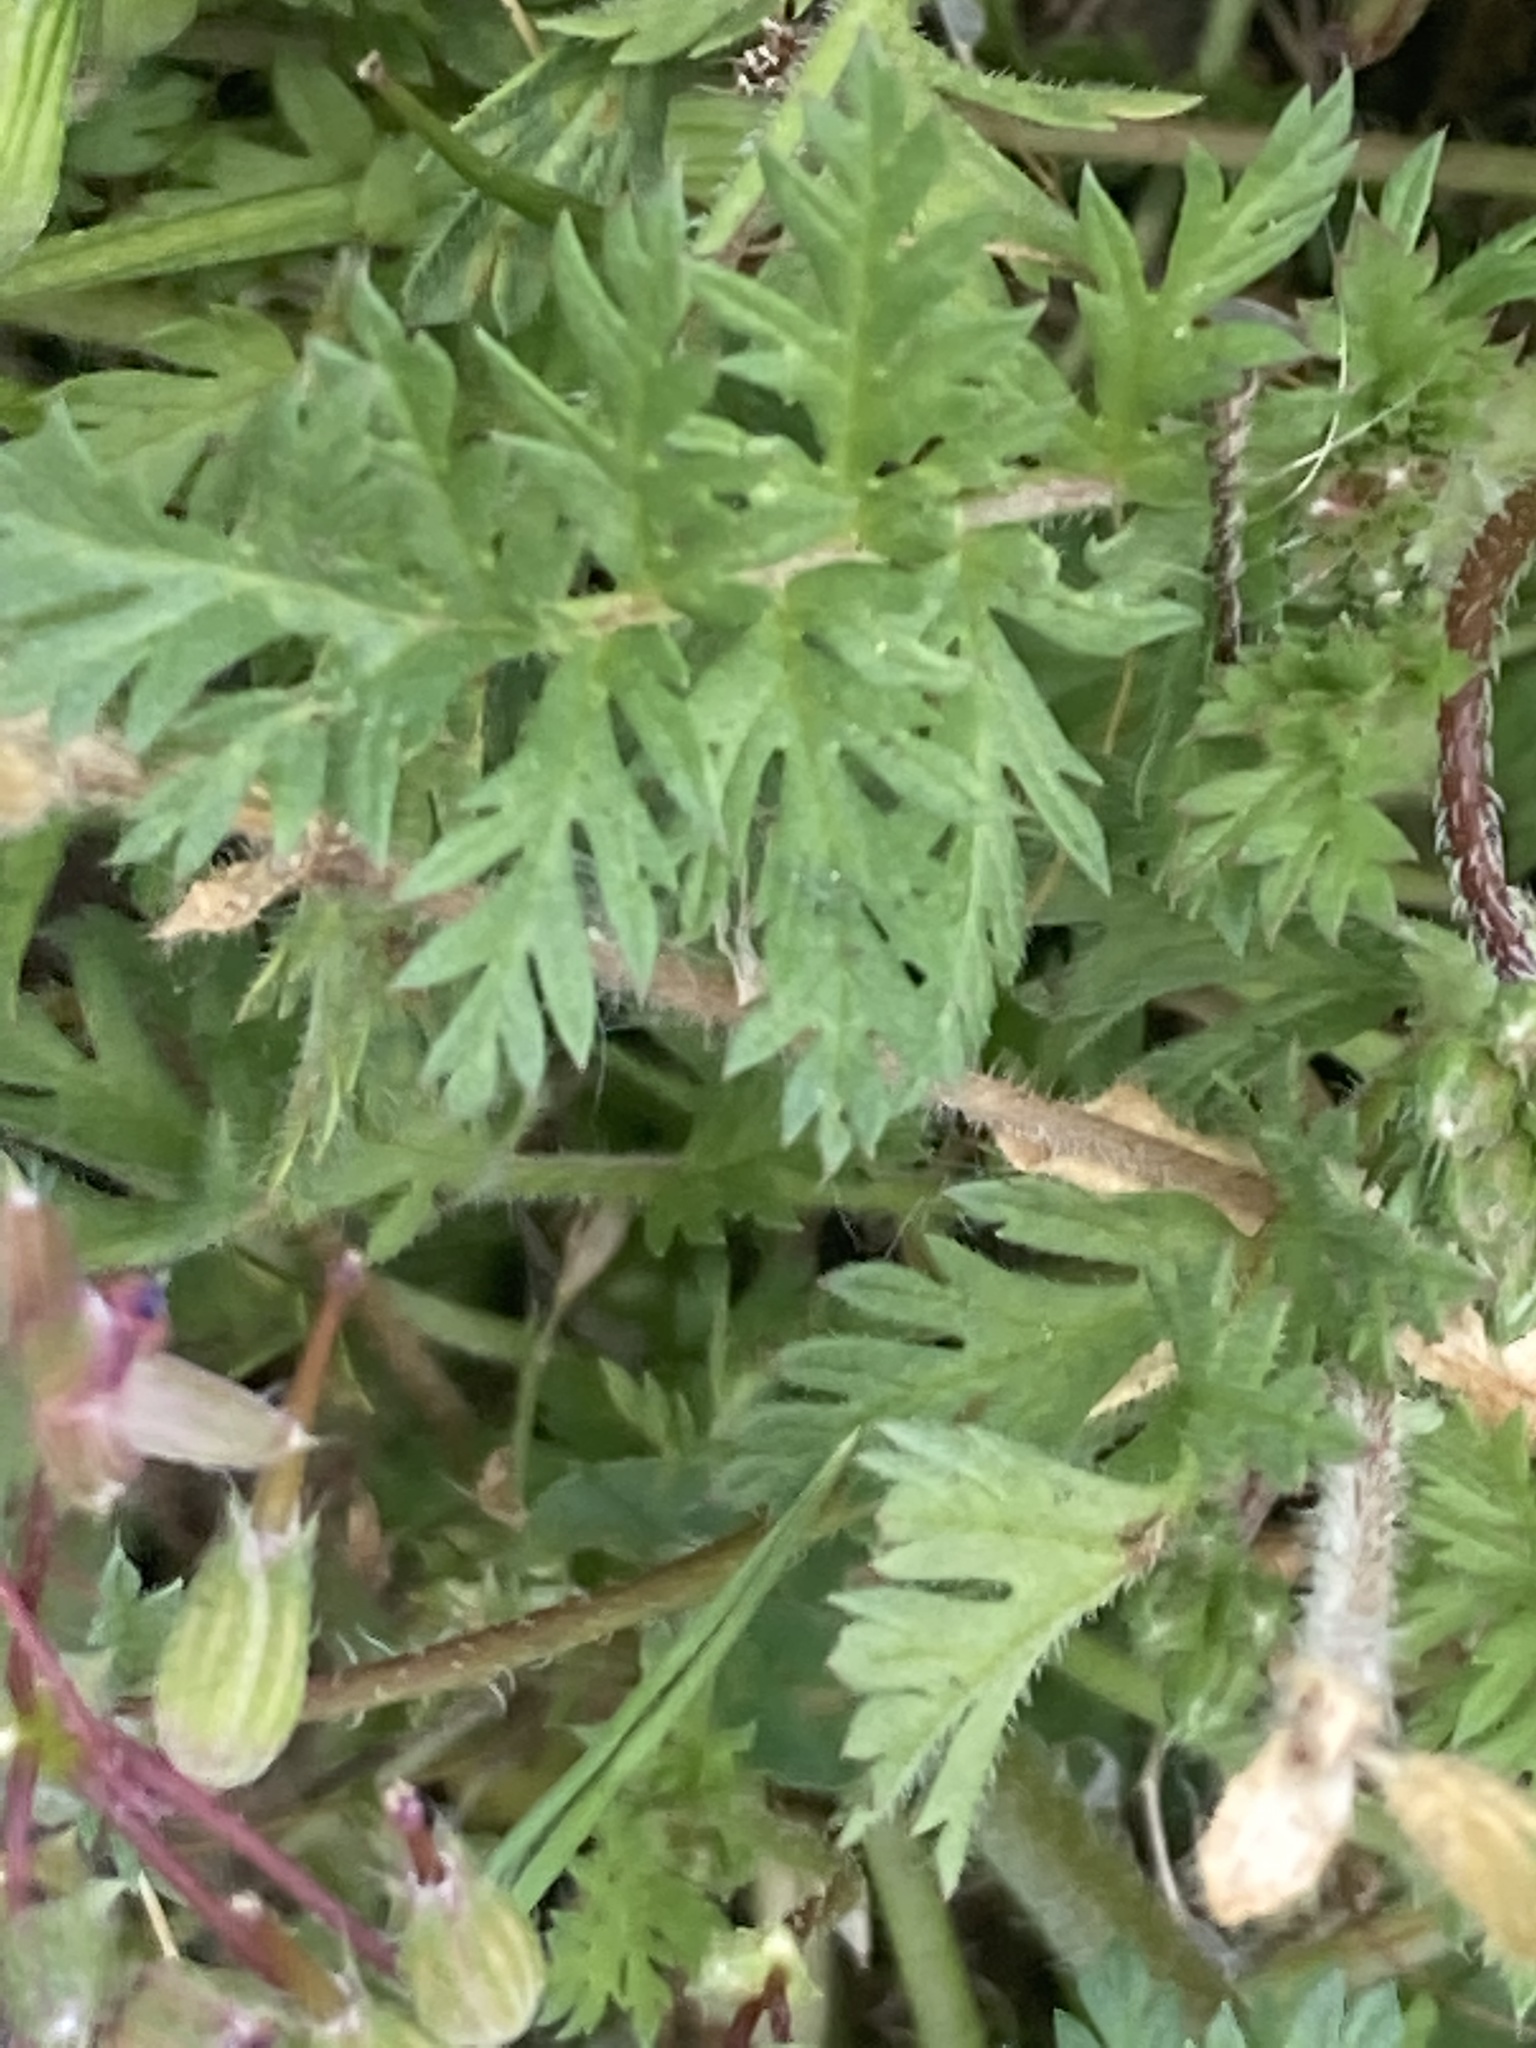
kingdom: Plantae
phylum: Tracheophyta
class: Magnoliopsida
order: Geraniales
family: Geraniaceae
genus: Erodium
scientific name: Erodium cicutarium
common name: Common stork's-bill
